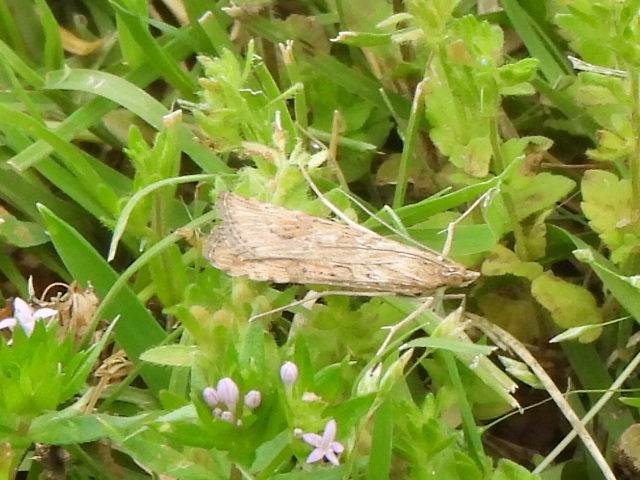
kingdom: Animalia
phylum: Arthropoda
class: Insecta
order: Lepidoptera
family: Crambidae
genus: Nomophila
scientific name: Nomophila nearctica
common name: American rush veneer
